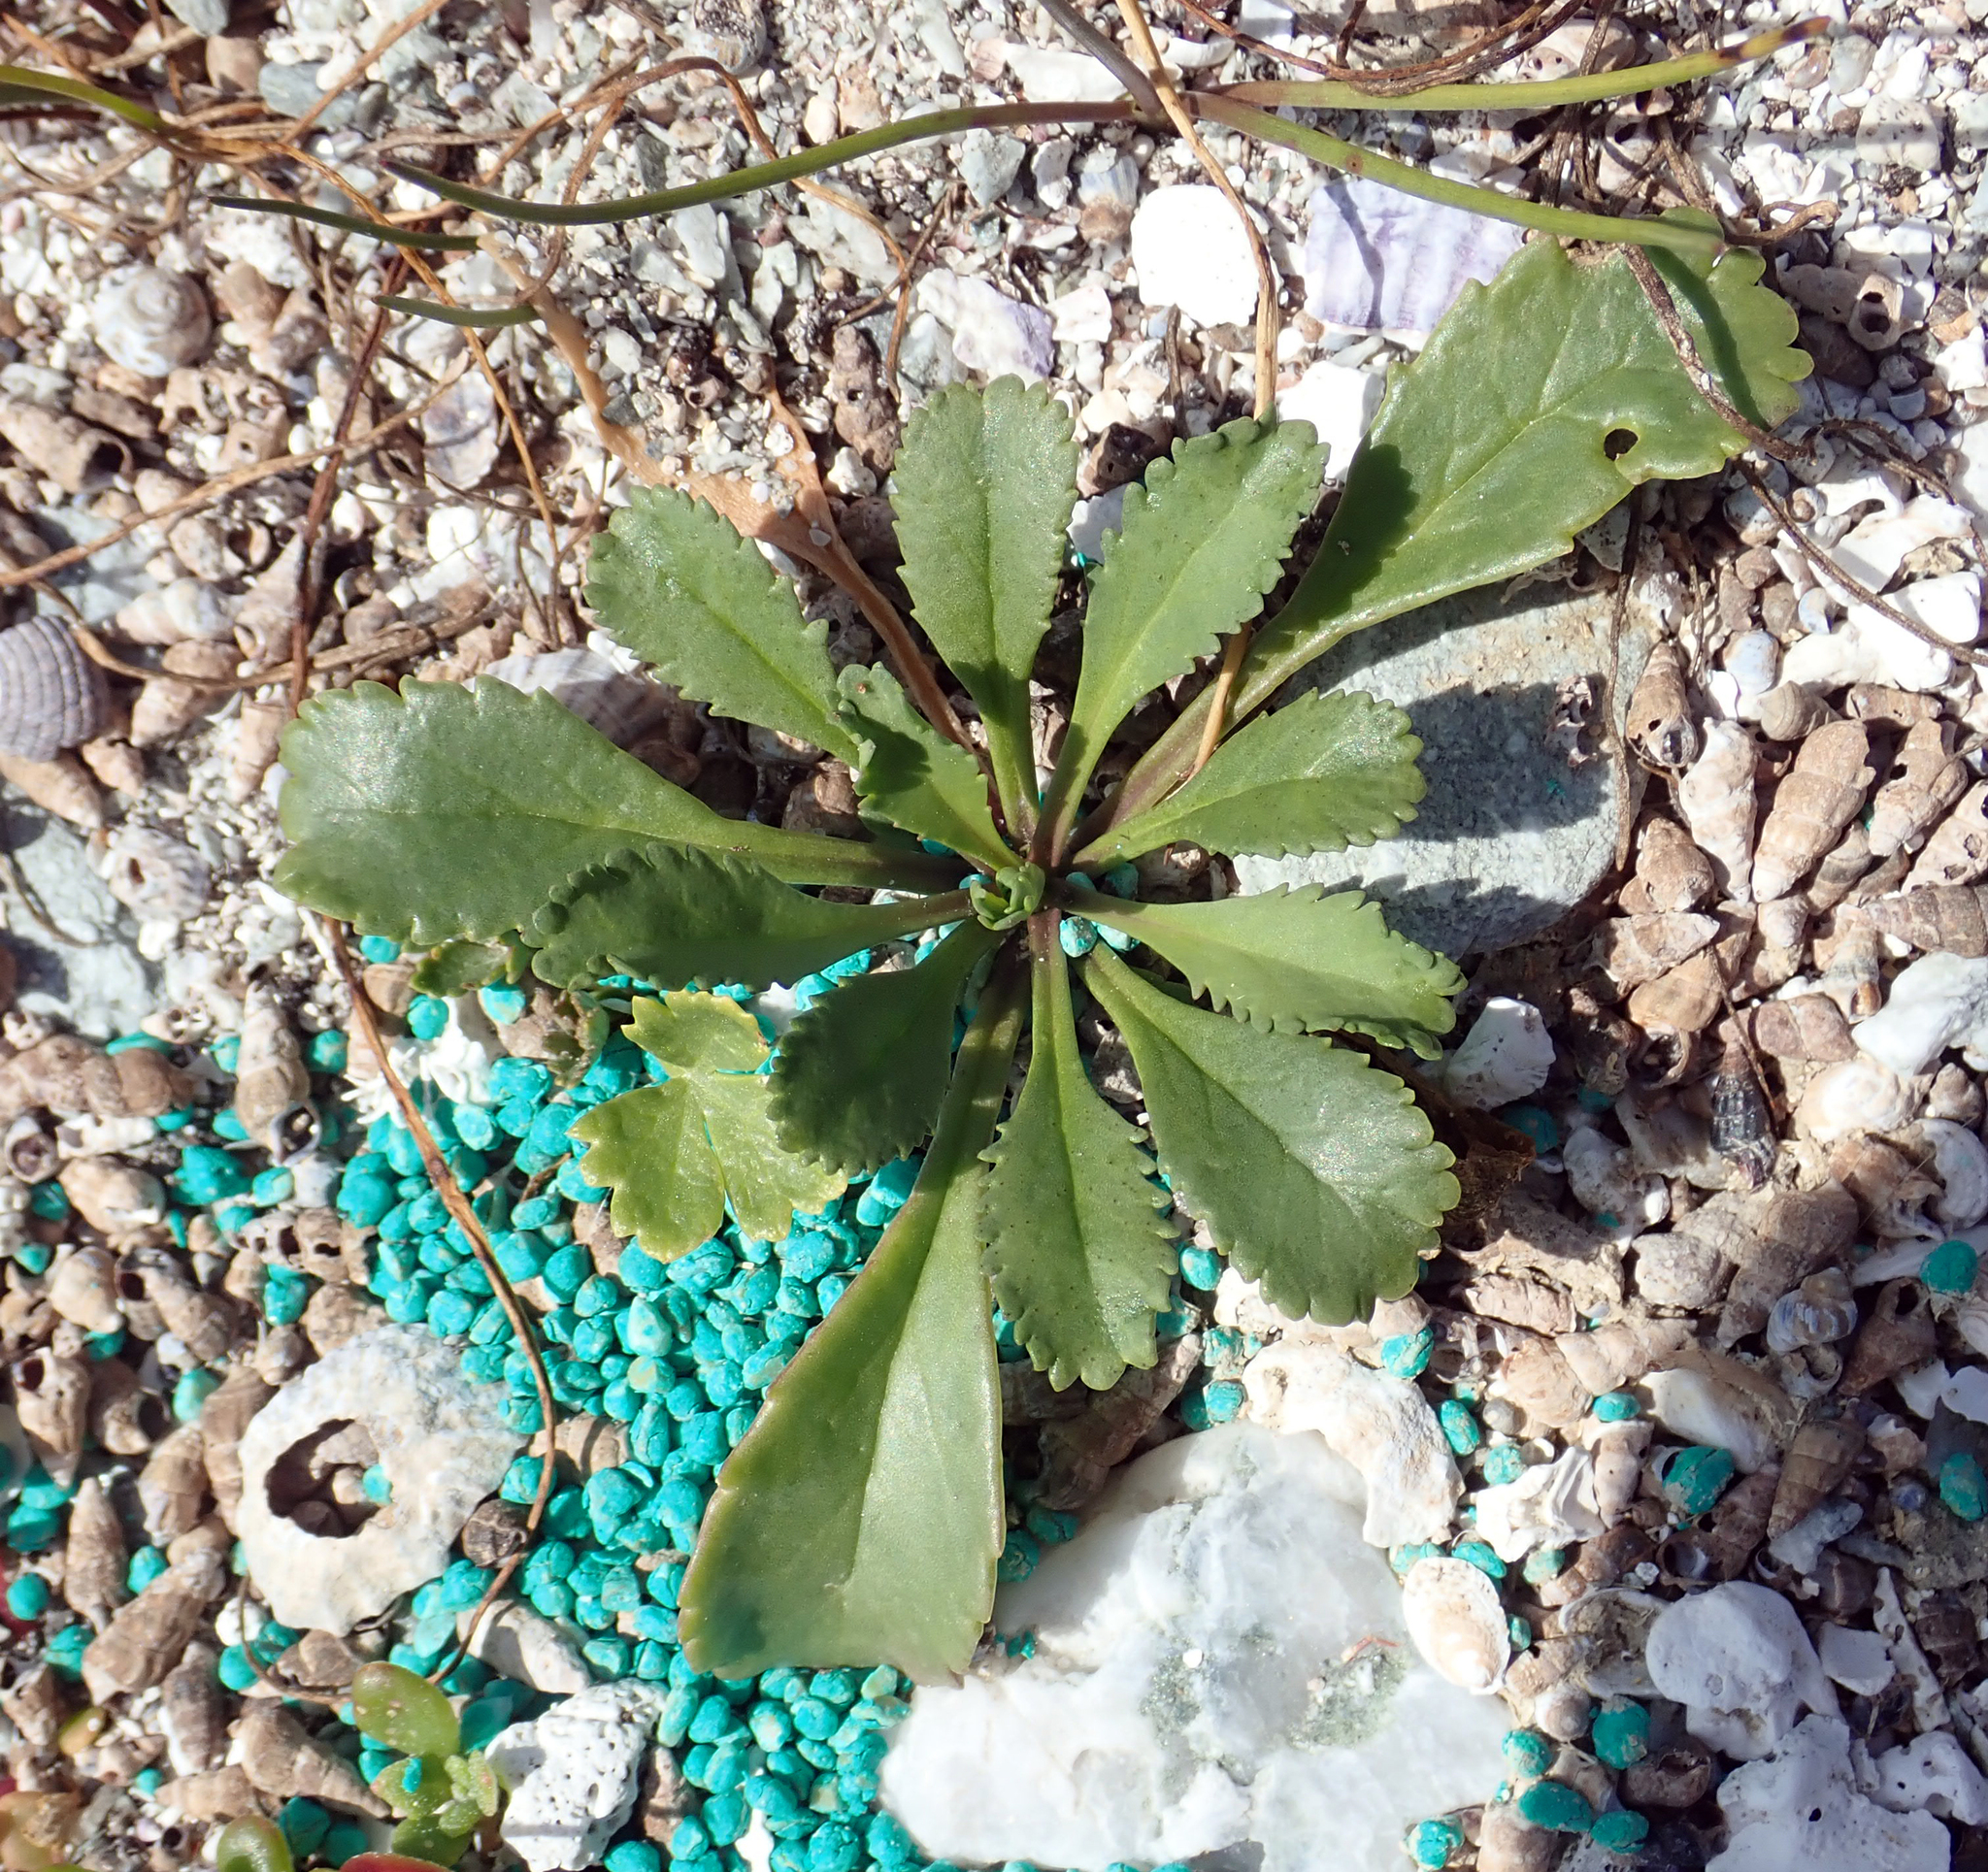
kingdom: Plantae
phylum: Tracheophyta
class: Magnoliopsida
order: Brassicales
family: Brassicaceae
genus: Lepidium
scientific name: Lepidium rekohuense
